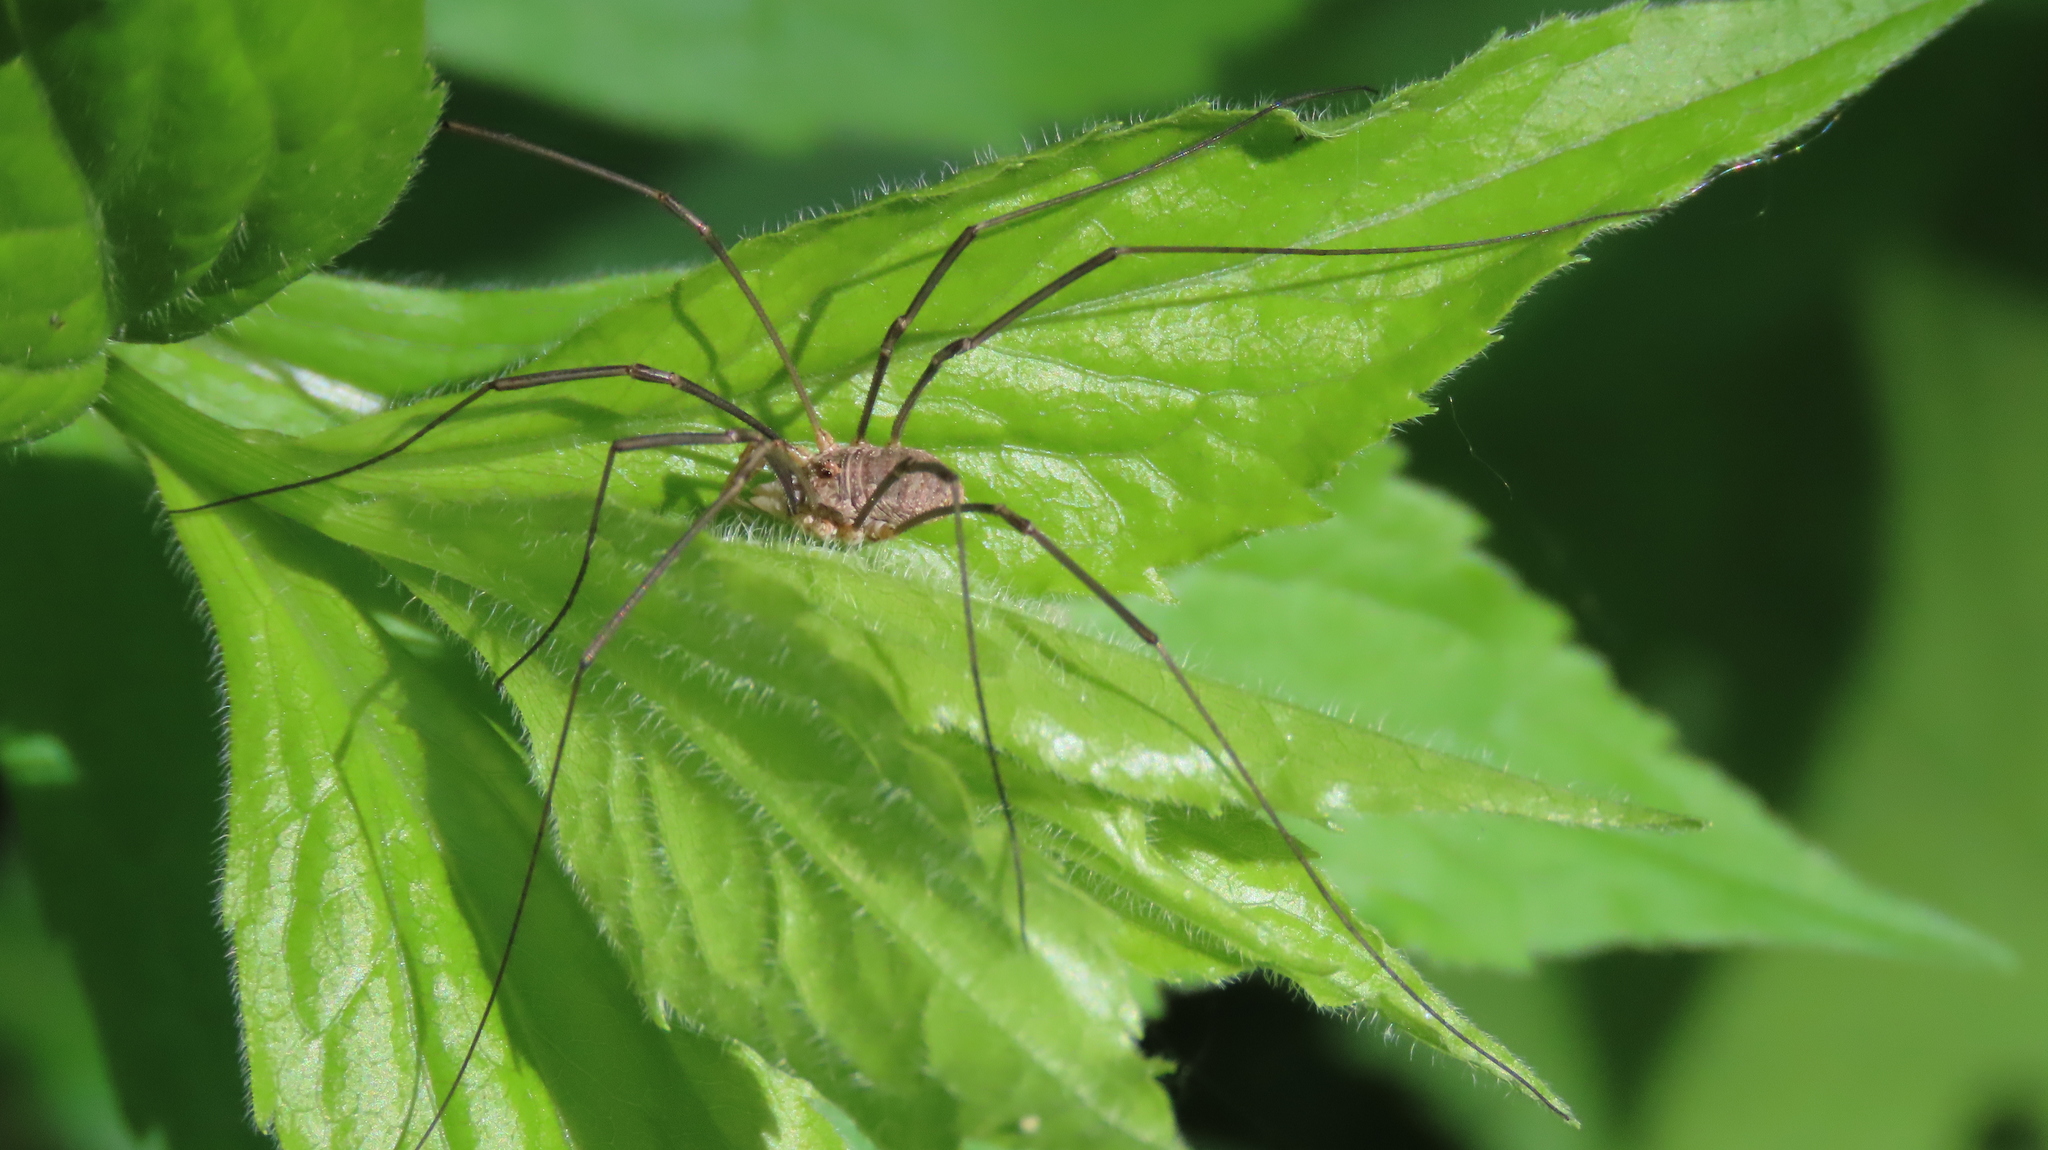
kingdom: Animalia
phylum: Arthropoda
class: Arachnida
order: Opiliones
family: Phalangiidae
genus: Phalangium
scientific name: Phalangium opilio
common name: Daddy longleg
